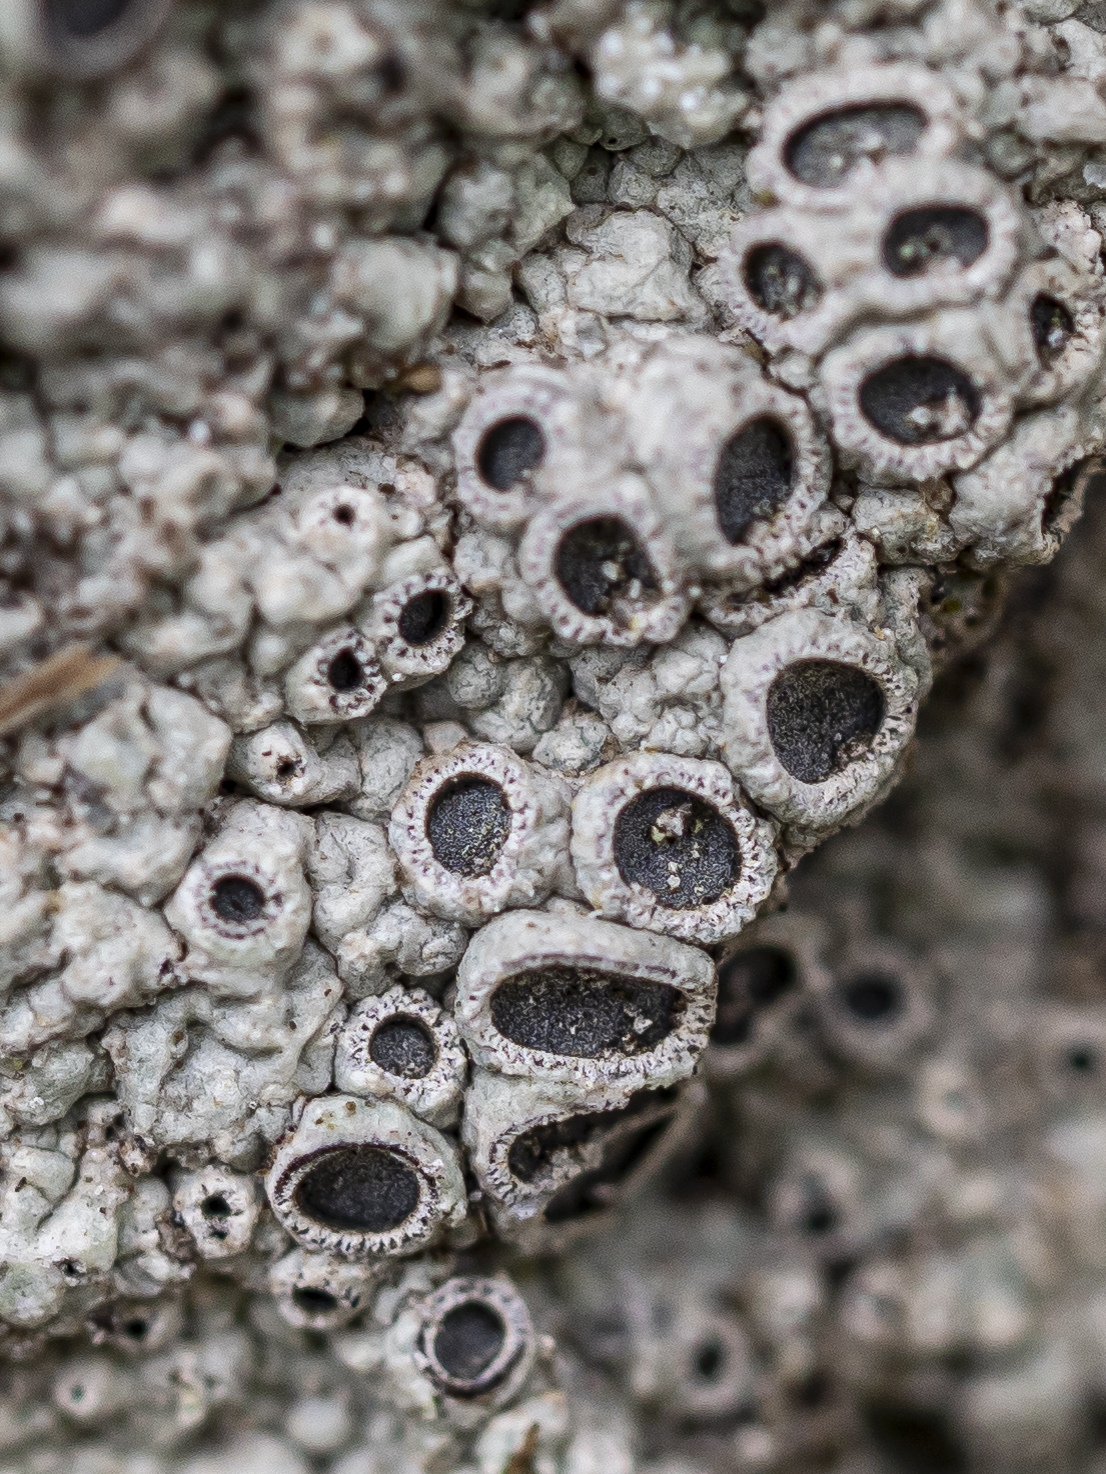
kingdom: Fungi
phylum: Ascomycota
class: Lecanoromycetes
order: Ostropales
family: Graphidaceae
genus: Diploschistes
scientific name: Diploschistes scruposus
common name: Crater lichen
